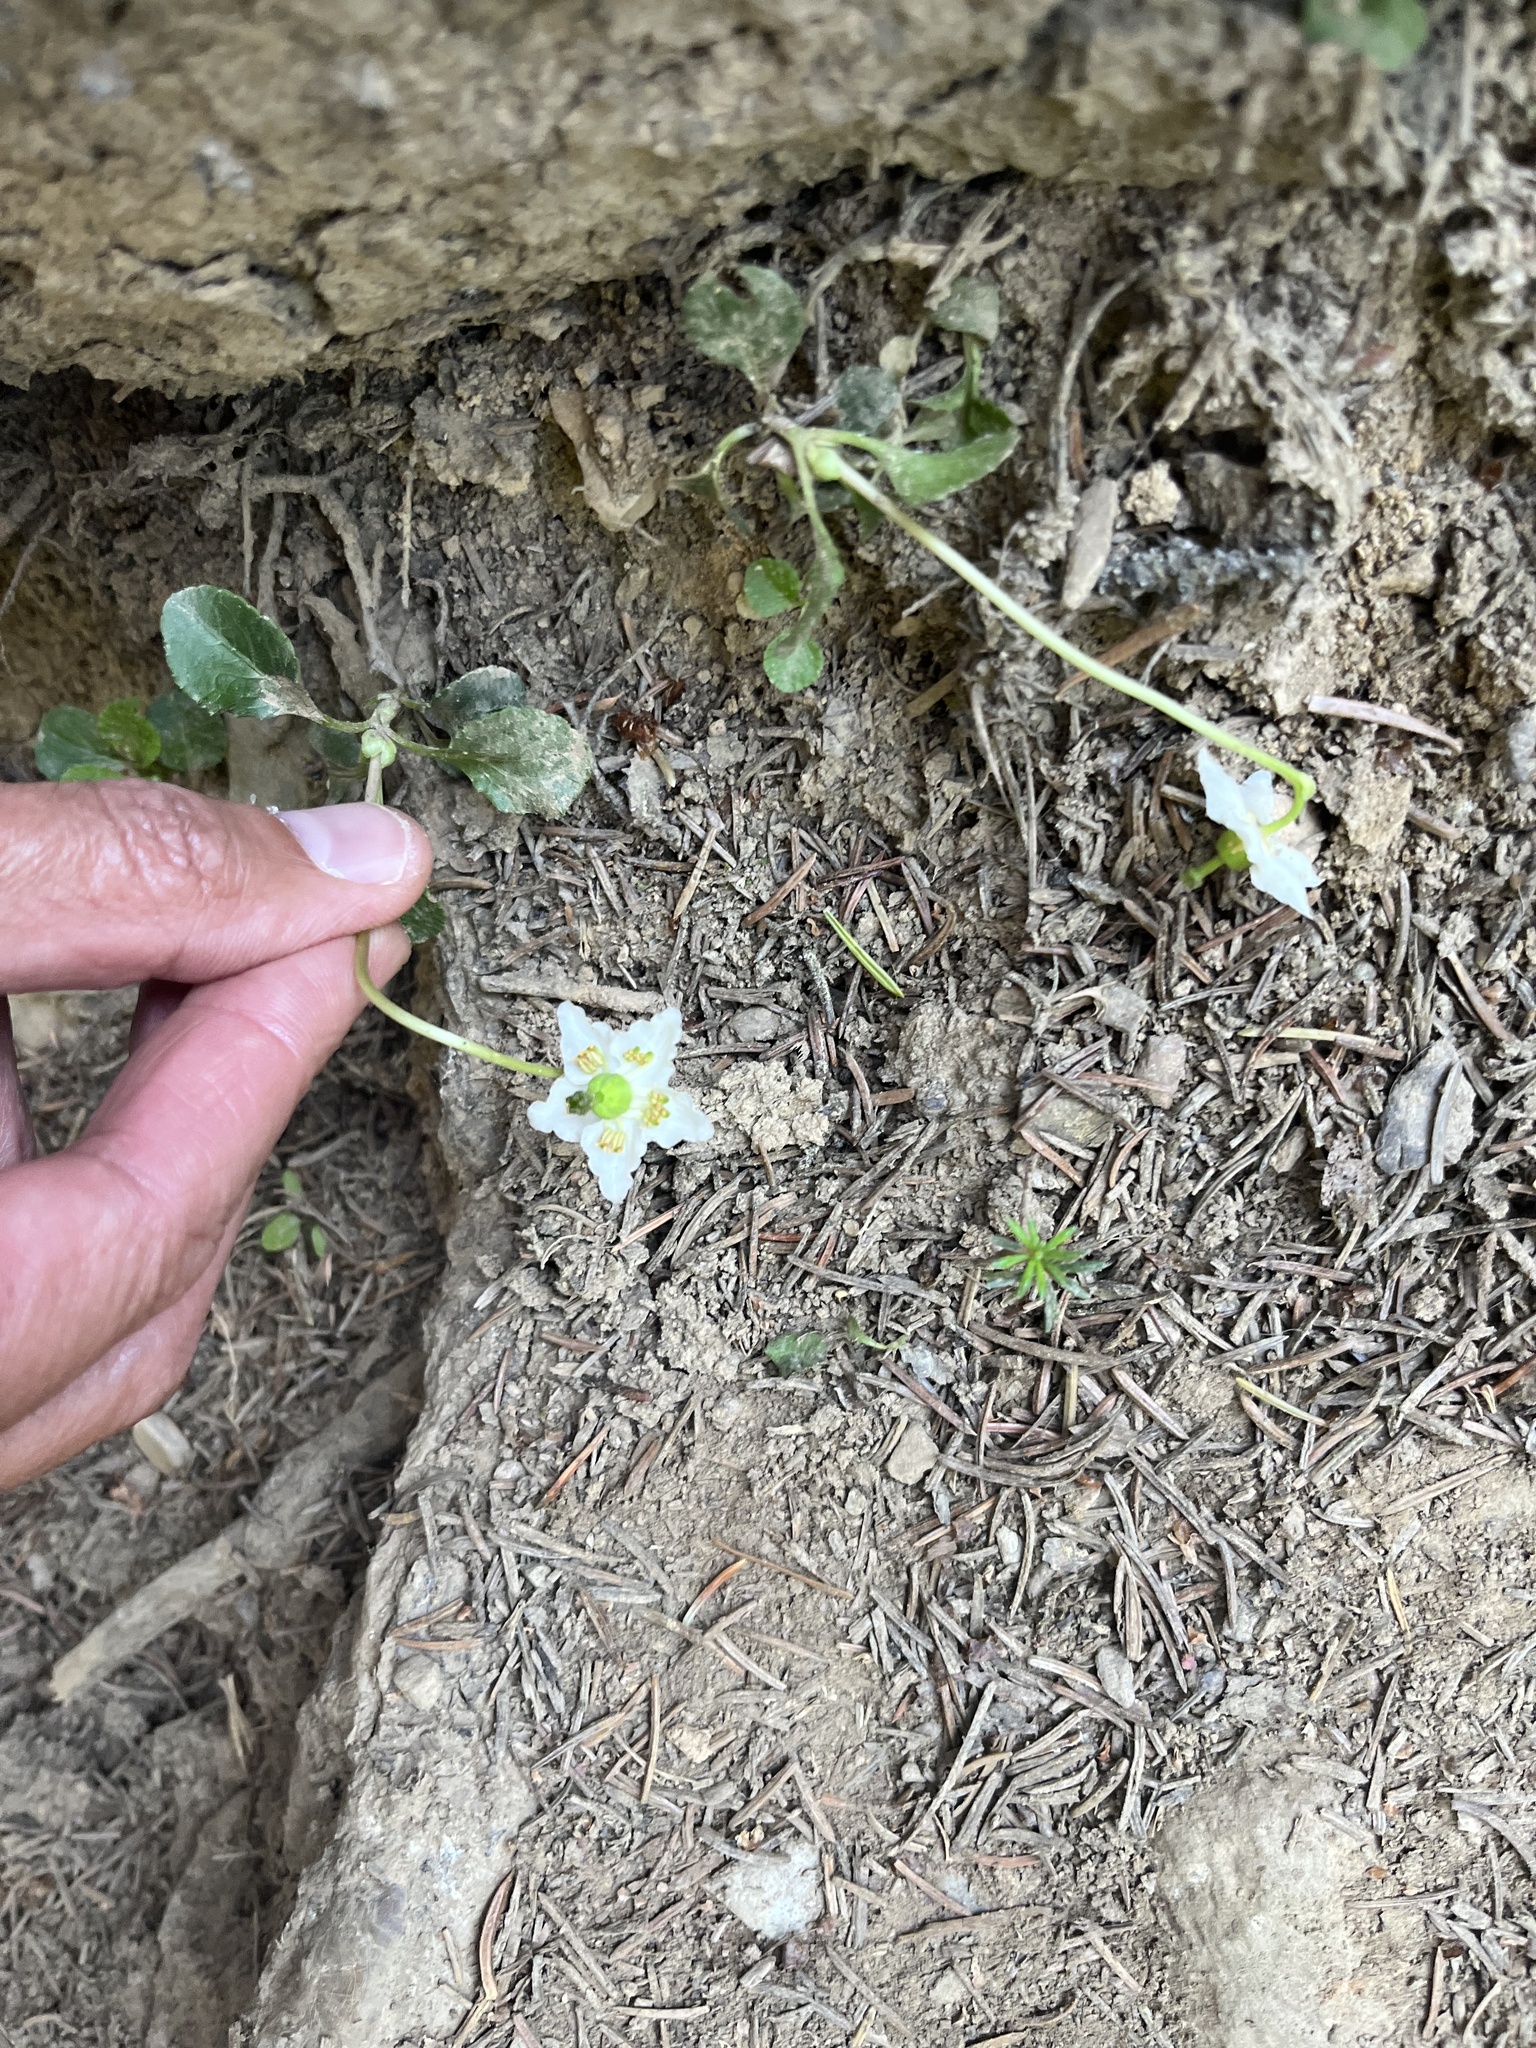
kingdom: Plantae
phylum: Tracheophyta
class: Magnoliopsida
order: Ericales
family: Ericaceae
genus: Moneses
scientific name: Moneses uniflora
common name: One-flowered wintergreen
